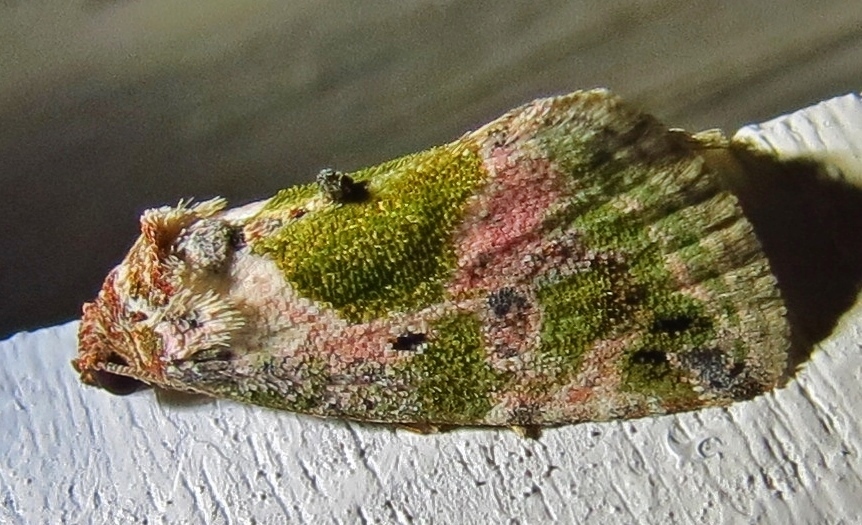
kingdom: Animalia
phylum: Arthropoda
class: Insecta
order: Lepidoptera
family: Noctuidae
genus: Maliattha
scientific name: Maliattha synochitis
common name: Black-dotted glyph
